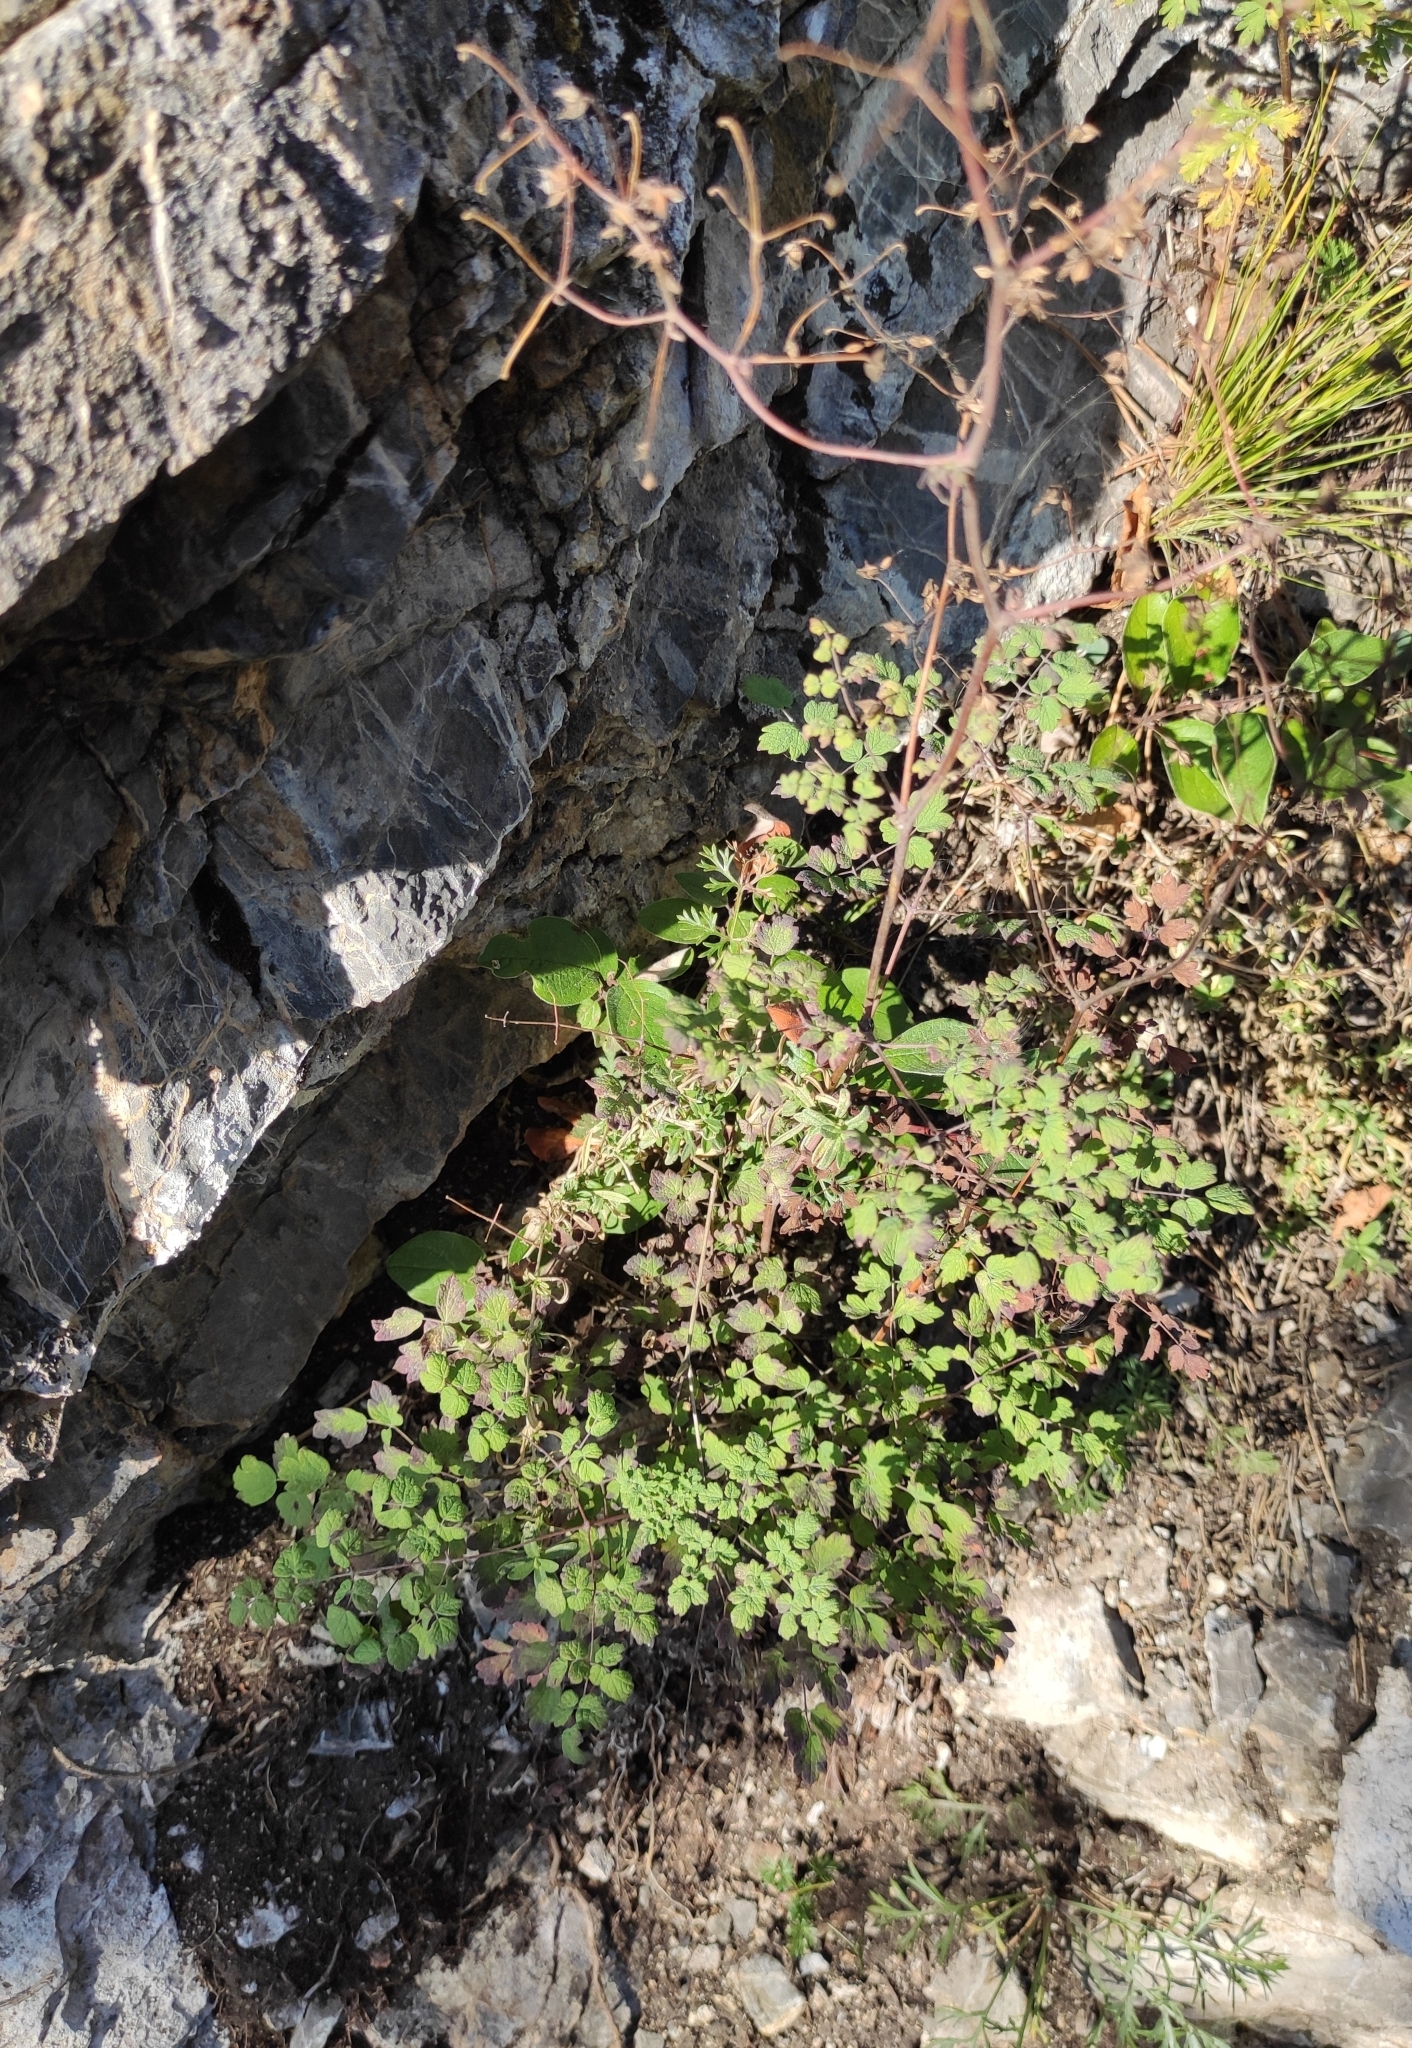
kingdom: Plantae
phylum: Tracheophyta
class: Magnoliopsida
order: Ranunculales
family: Ranunculaceae
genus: Thalictrum
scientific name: Thalictrum foetidum
